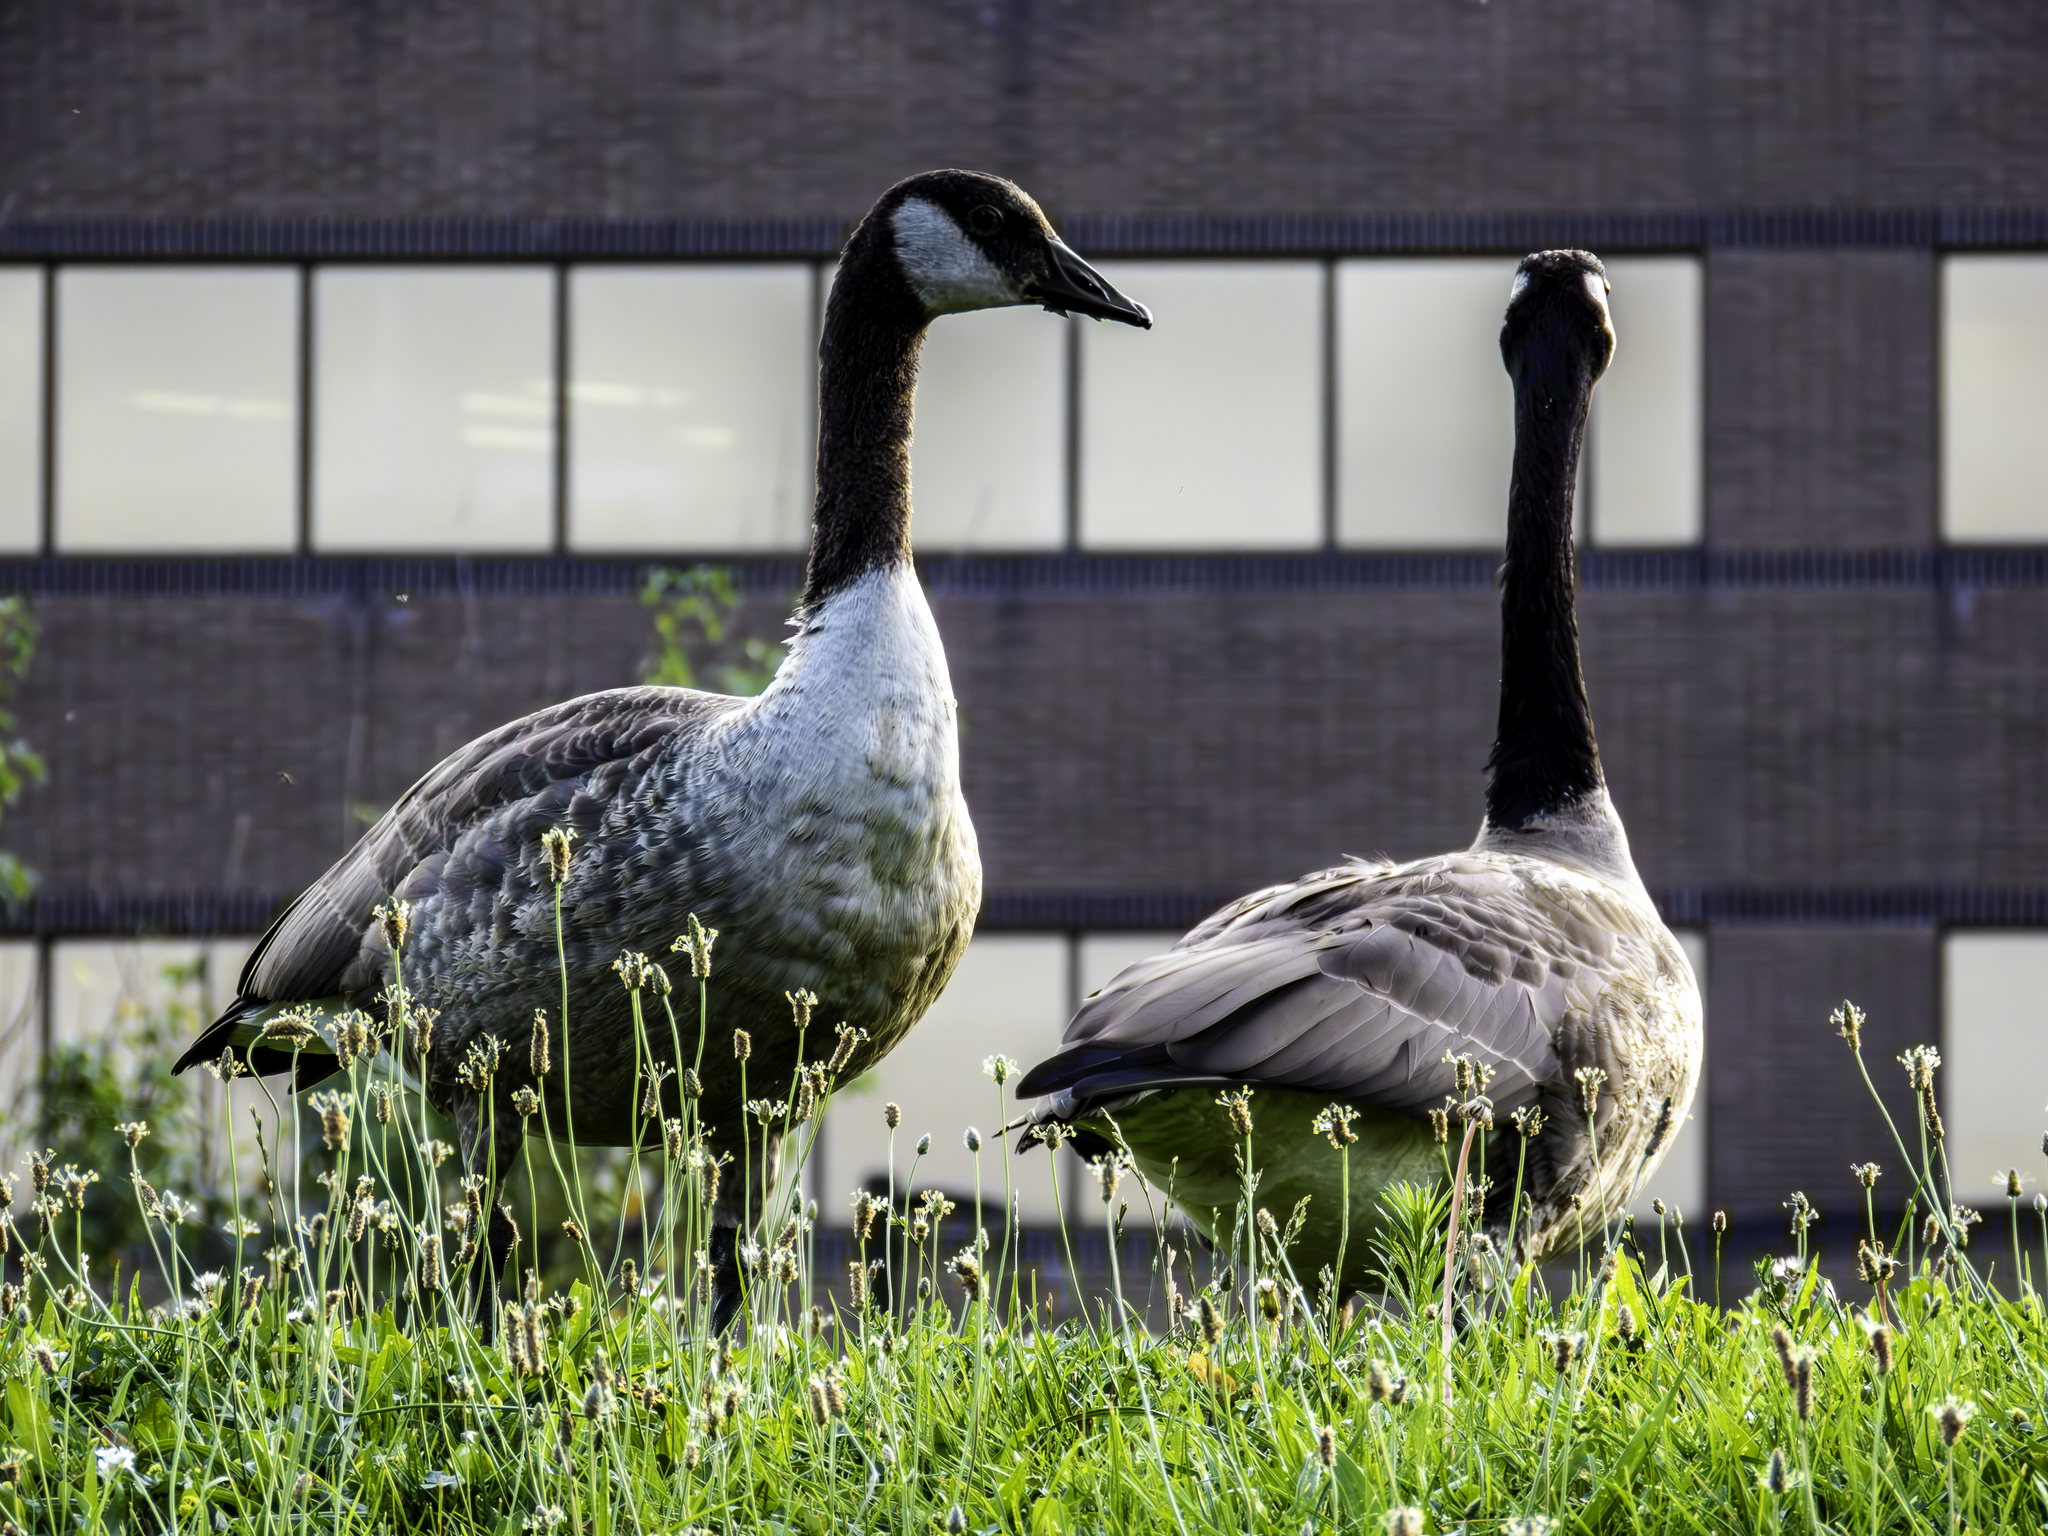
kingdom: Animalia
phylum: Chordata
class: Aves
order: Anseriformes
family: Anatidae
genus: Branta
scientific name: Branta canadensis
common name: Canada goose
